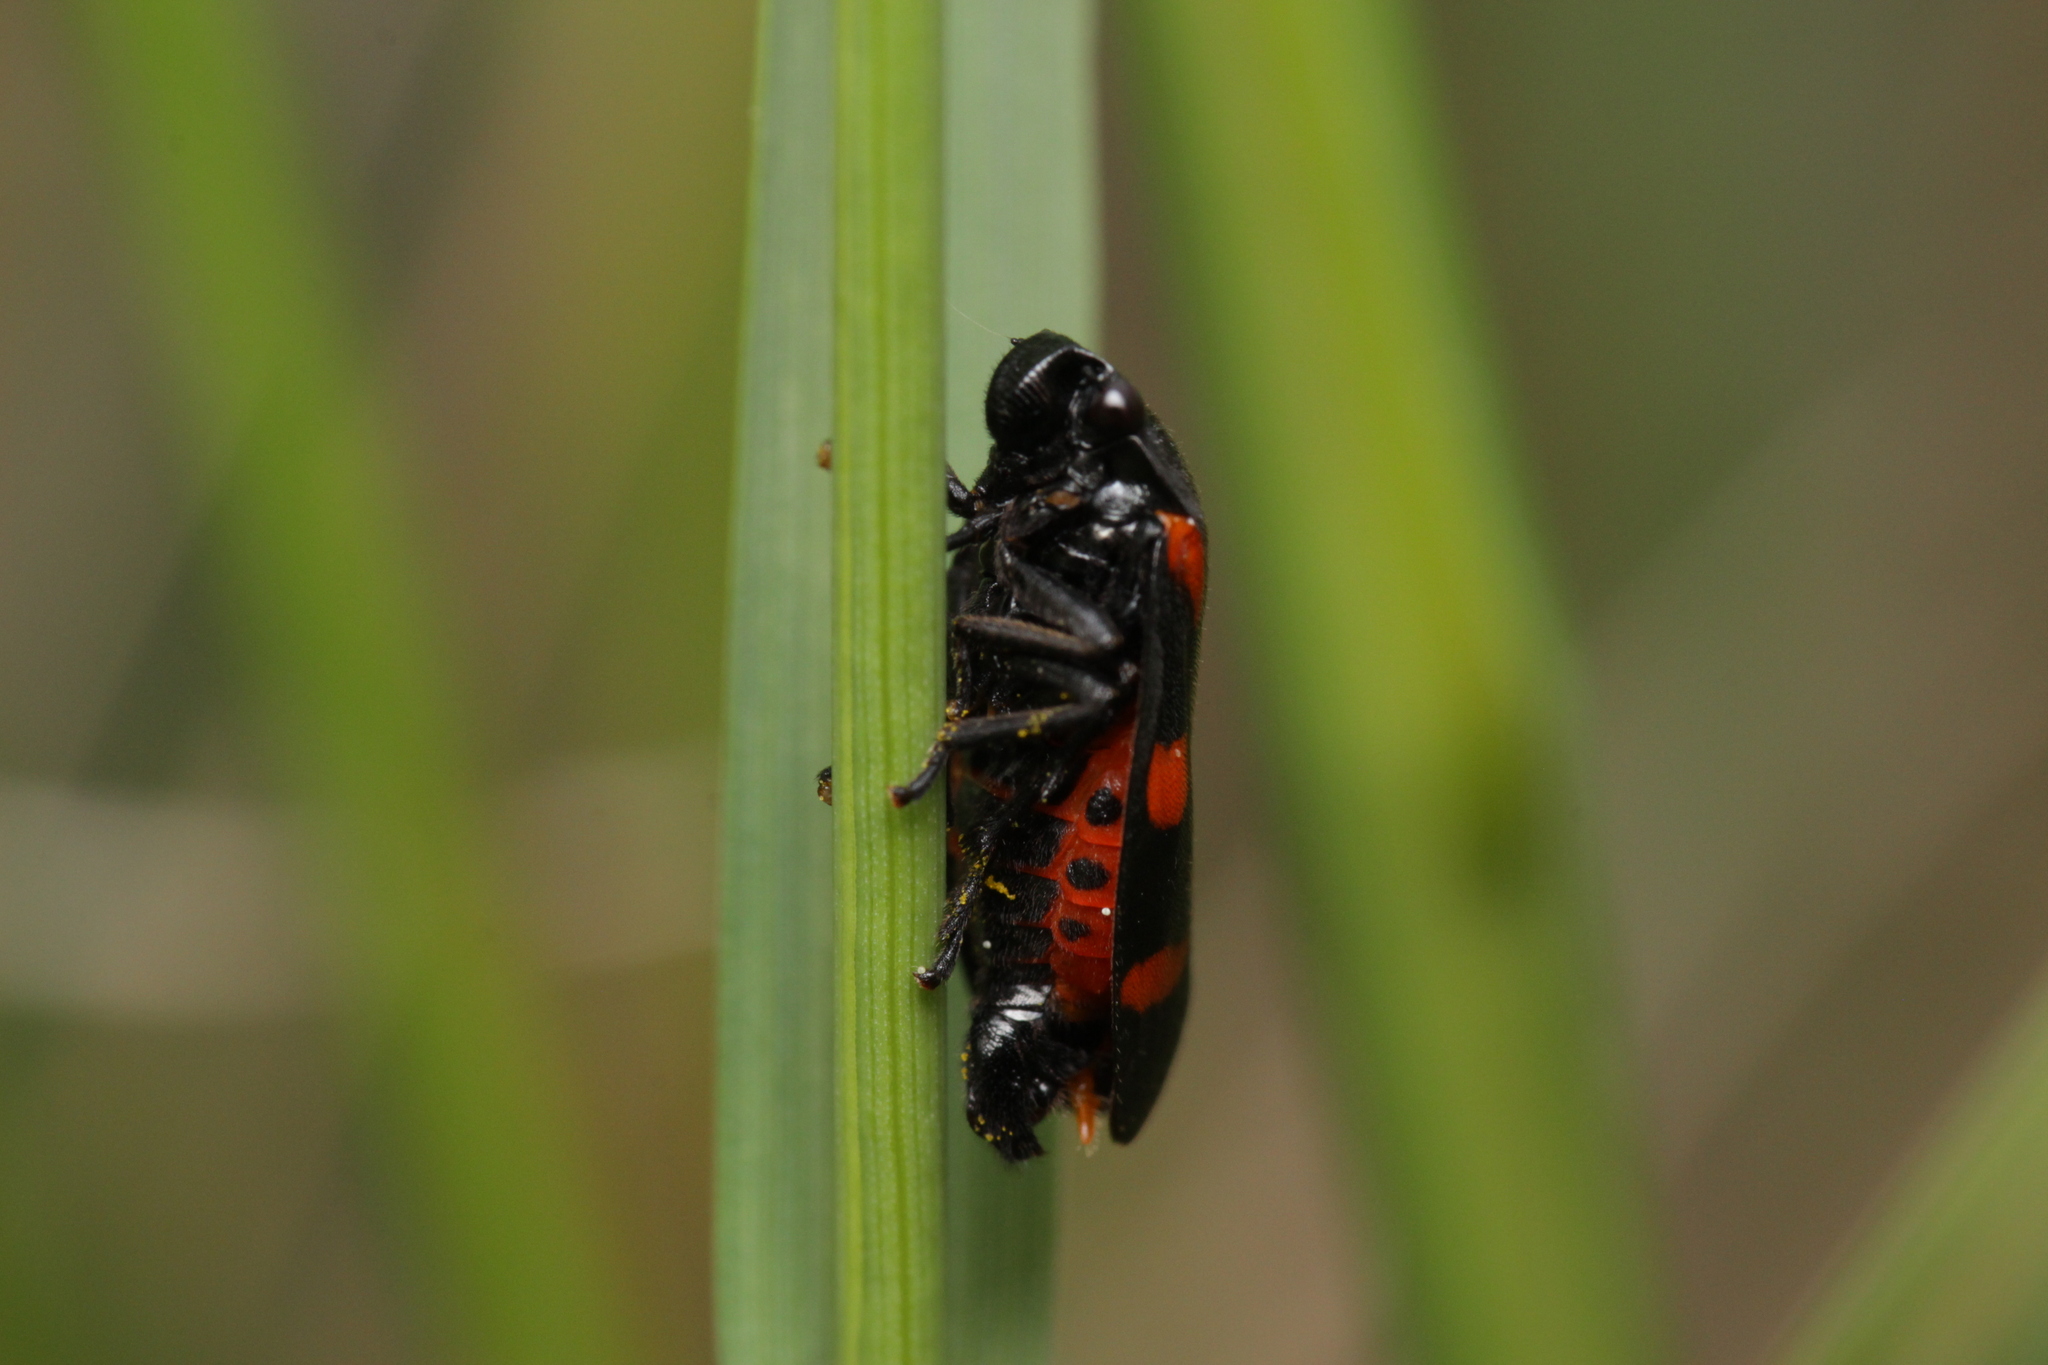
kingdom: Animalia
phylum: Arthropoda
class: Insecta
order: Hemiptera
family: Cercopidae
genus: Cercopis
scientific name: Cercopis sanguinolenta
